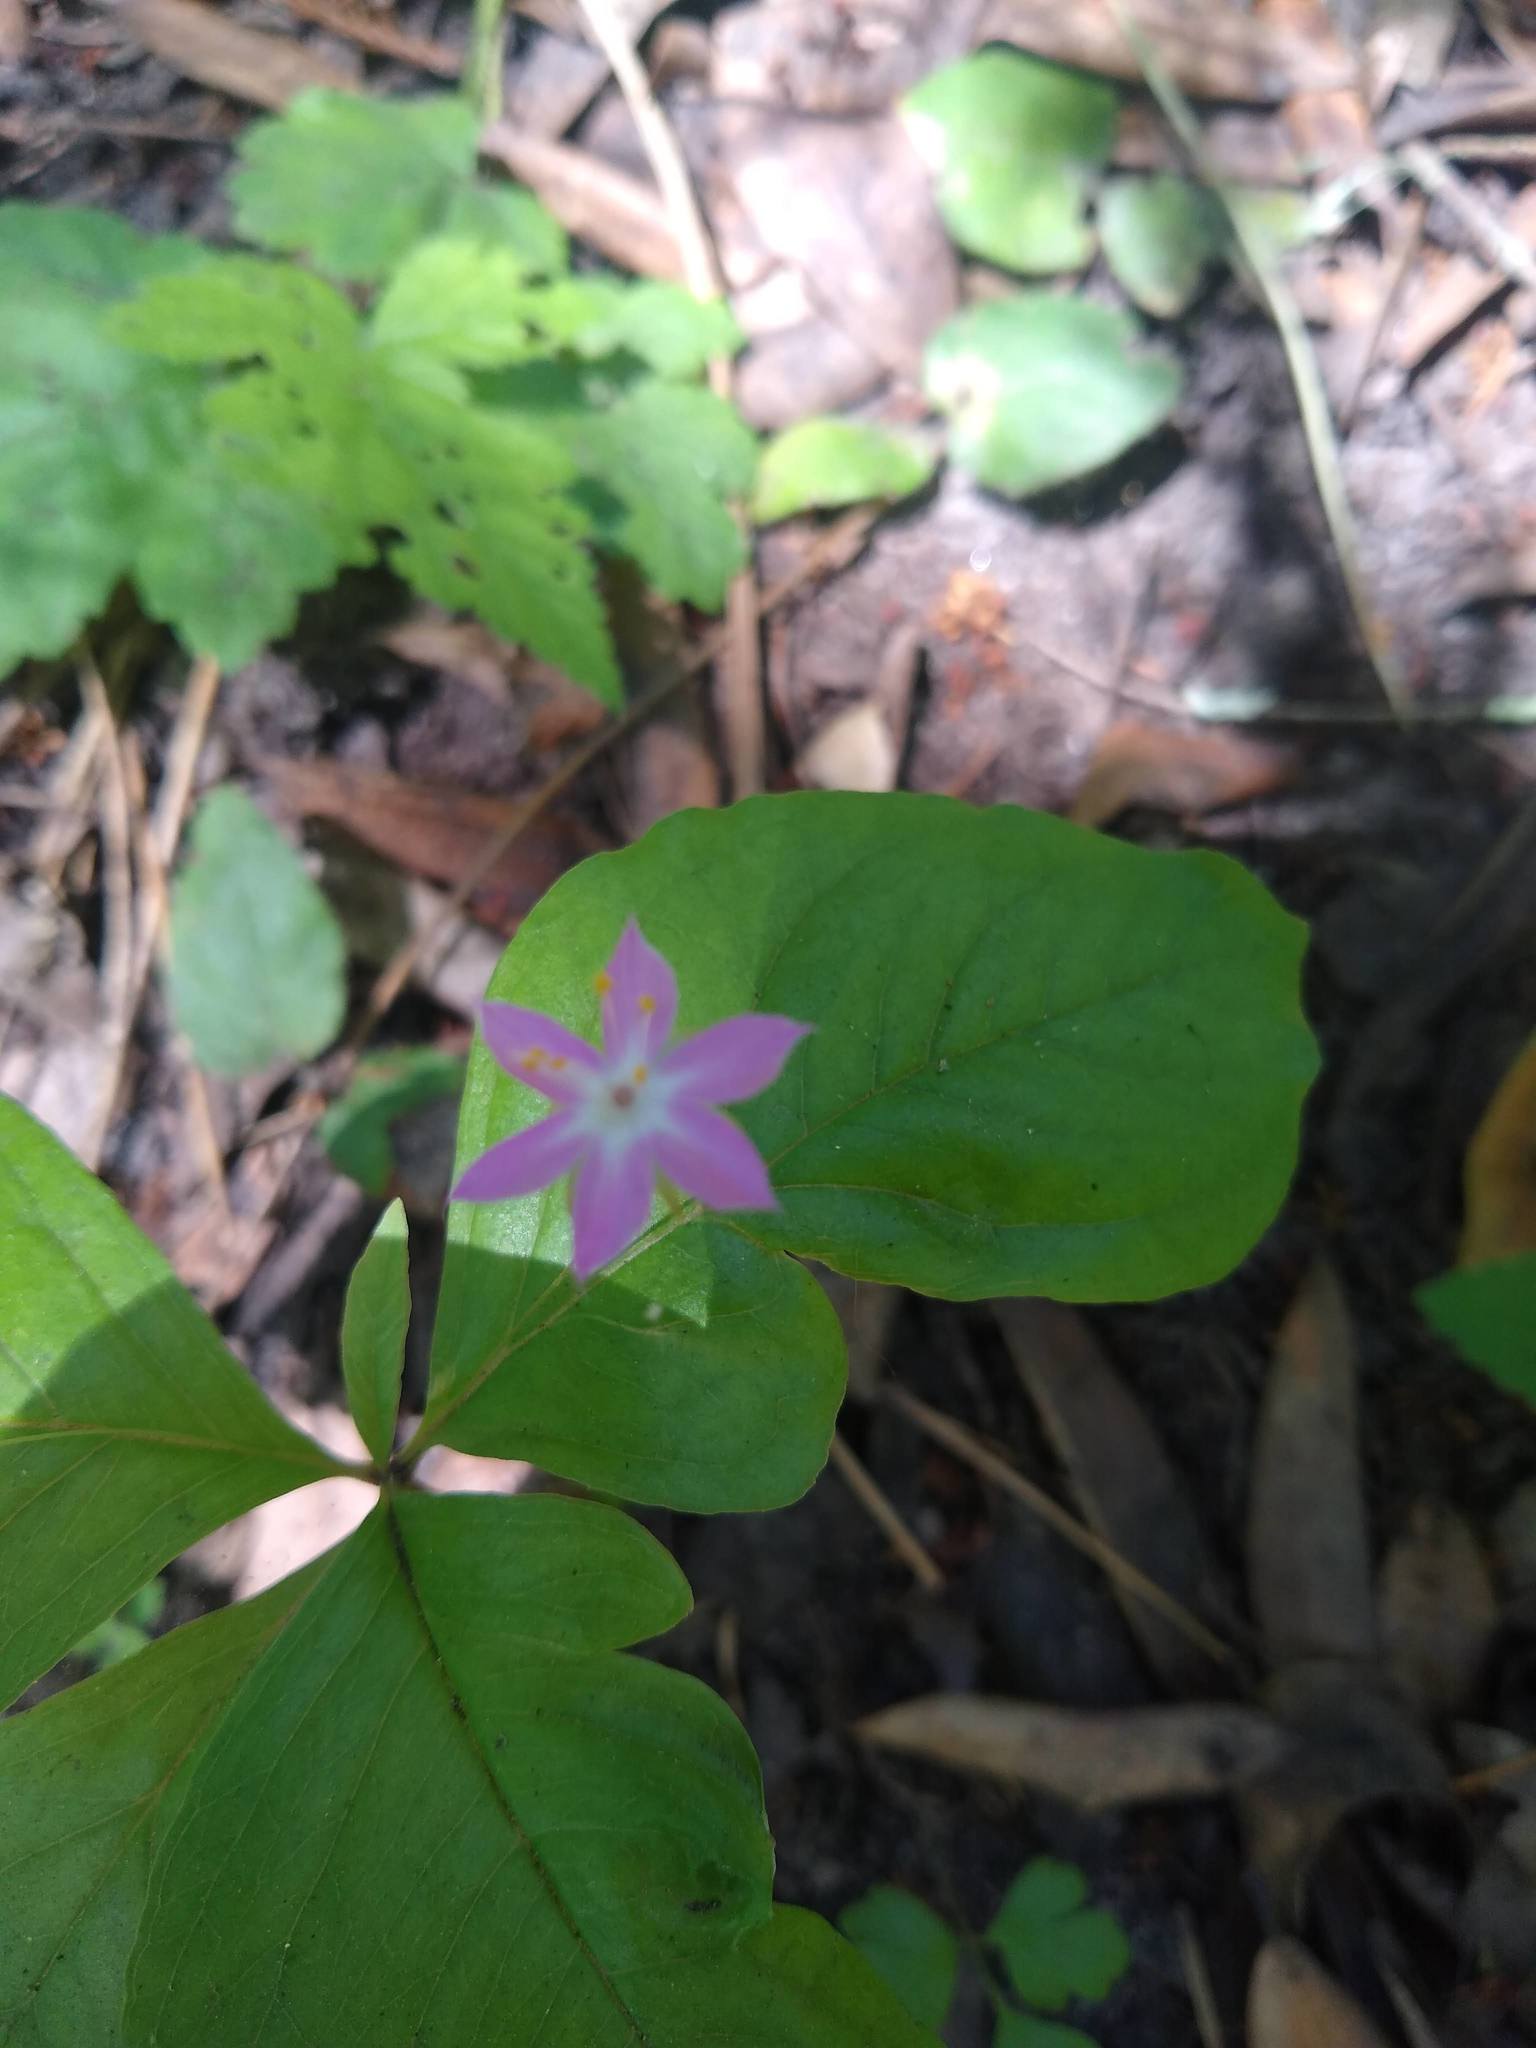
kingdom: Plantae
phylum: Tracheophyta
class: Magnoliopsida
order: Ericales
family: Primulaceae
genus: Lysimachia
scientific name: Lysimachia latifolia
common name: Pacific starflower
